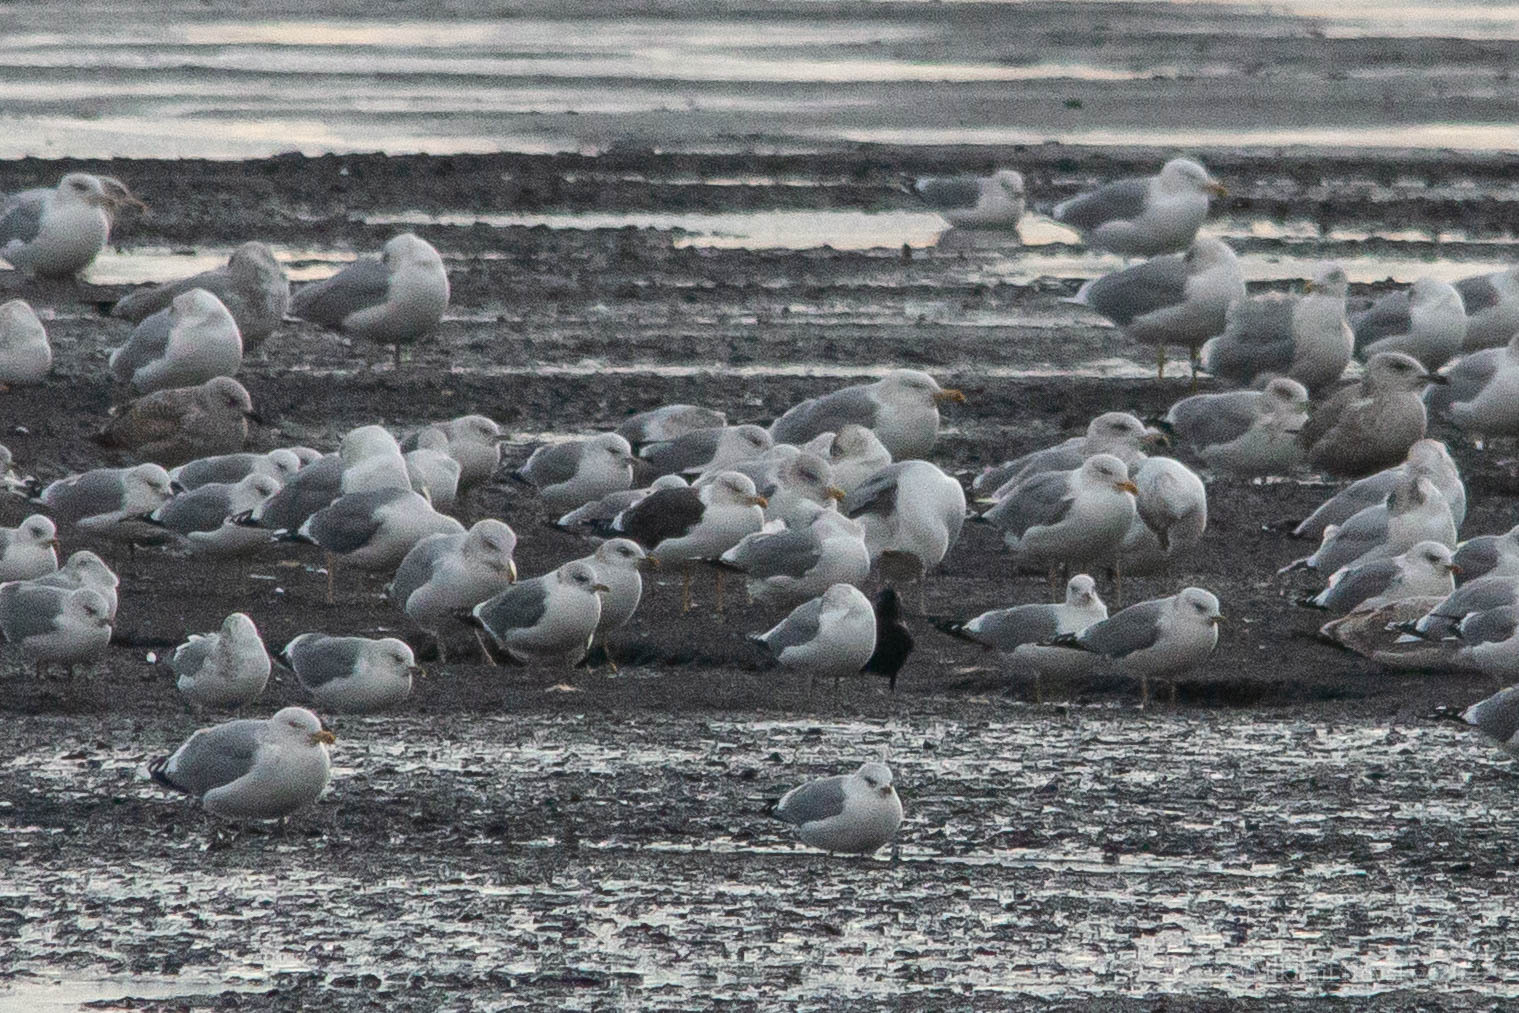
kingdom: Animalia
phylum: Chordata
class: Aves
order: Charadriiformes
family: Laridae
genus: Larus
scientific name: Larus fuscus
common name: Lesser black-backed gull
